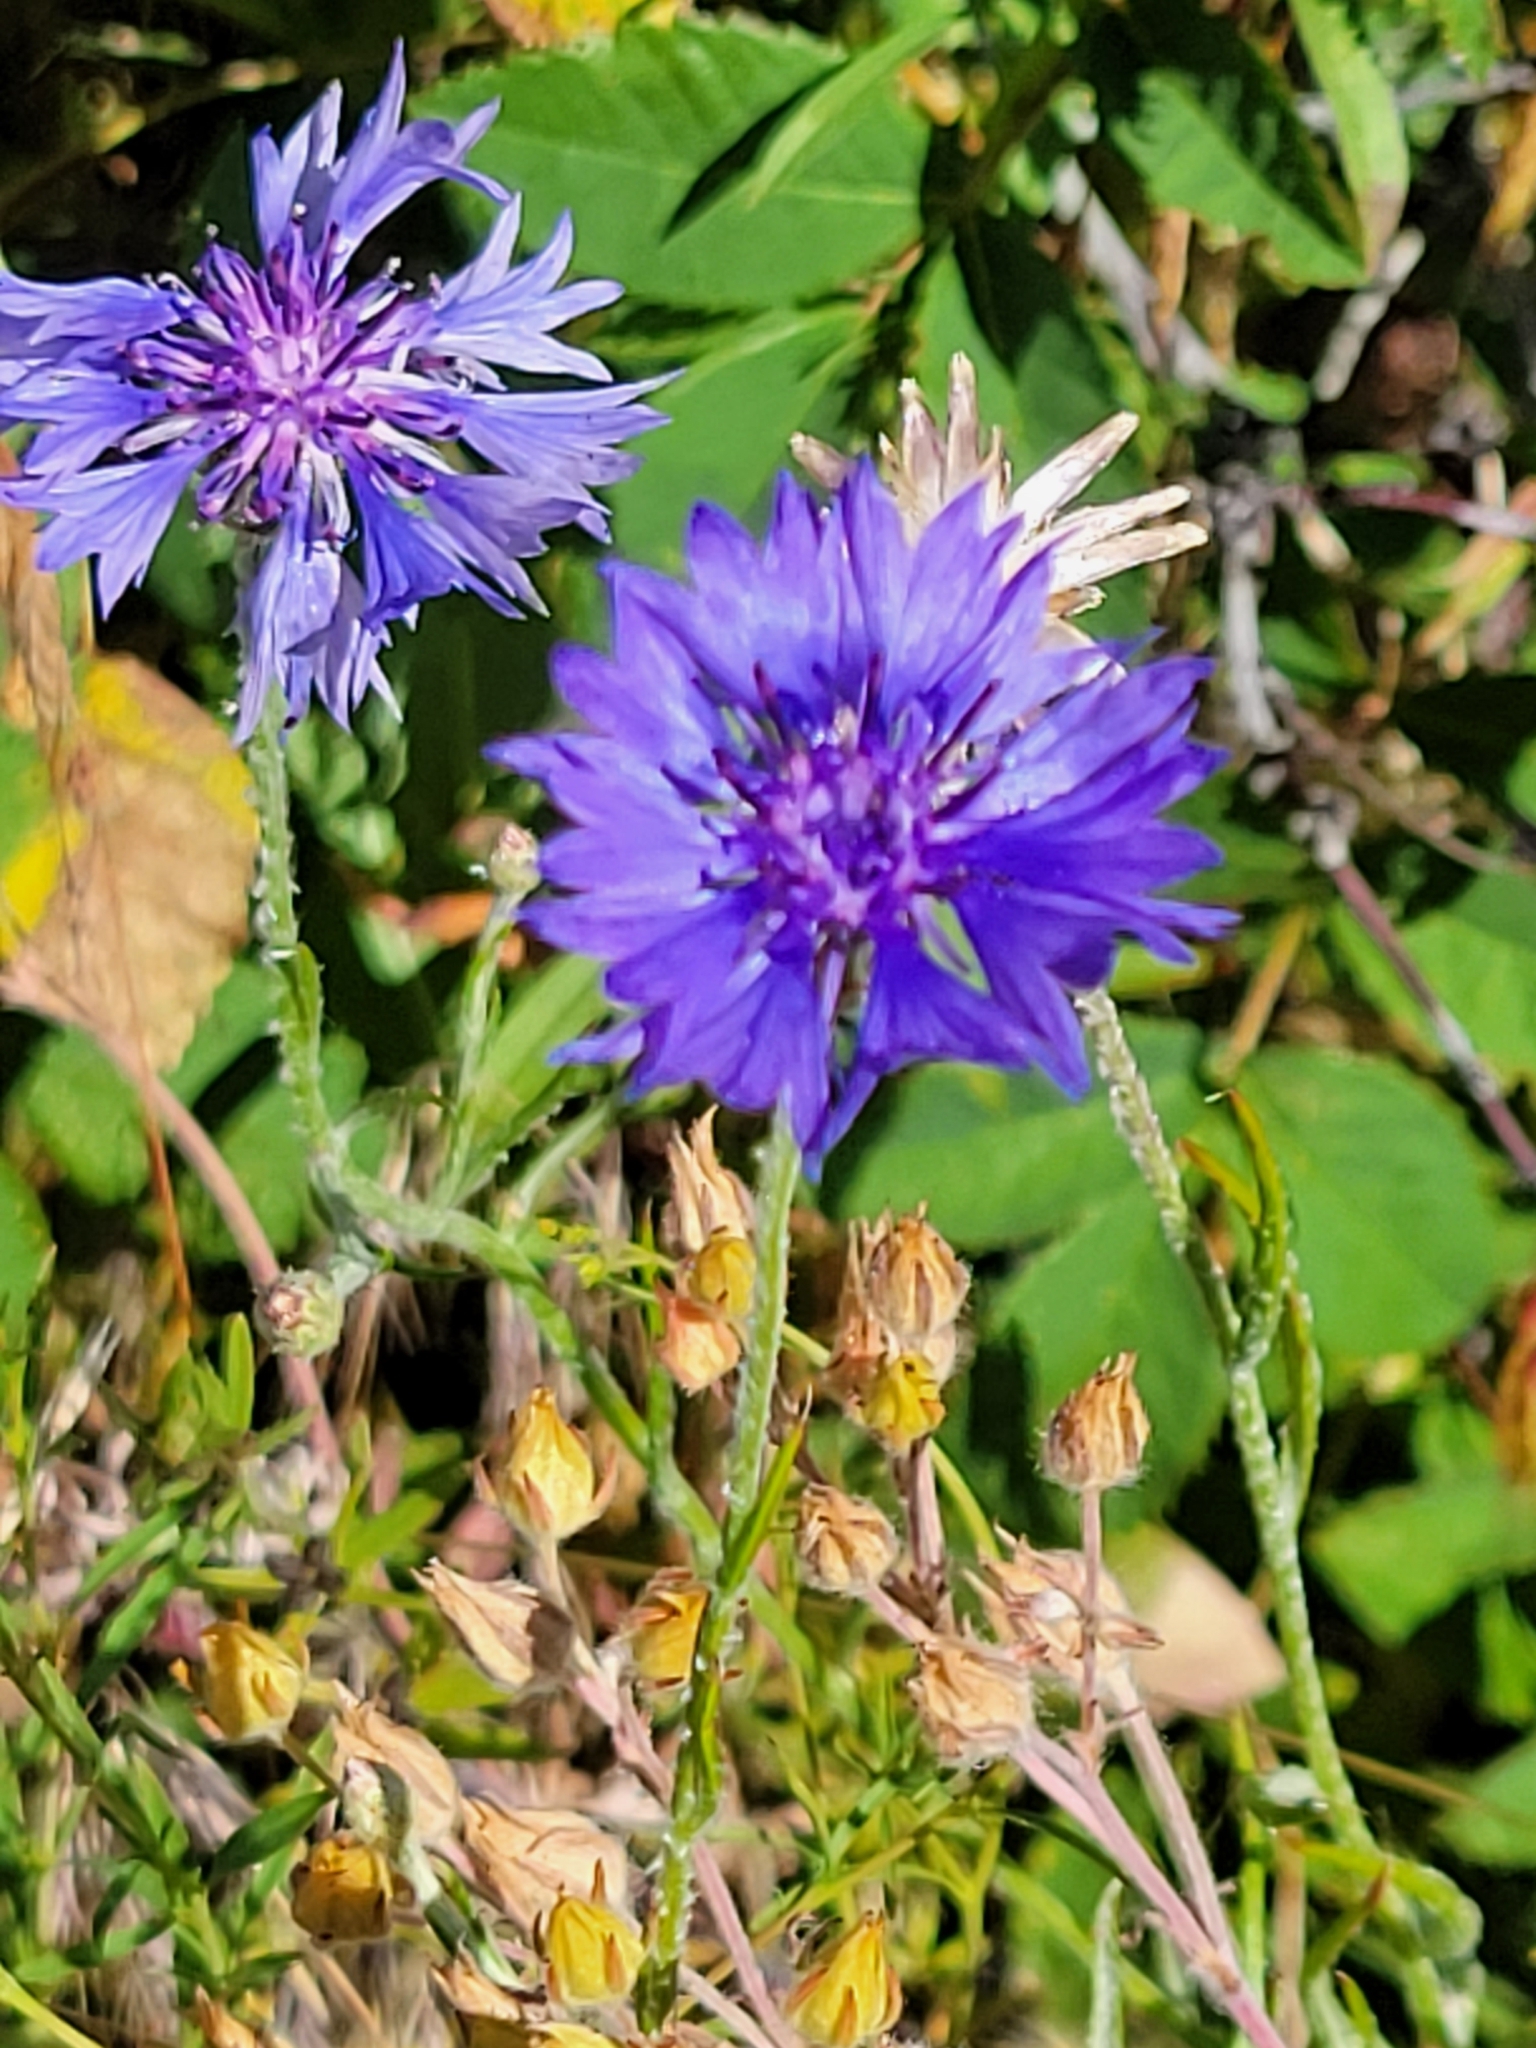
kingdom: Plantae
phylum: Tracheophyta
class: Magnoliopsida
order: Asterales
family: Asteraceae
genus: Centaurea
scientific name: Centaurea cyanus
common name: Cornflower
